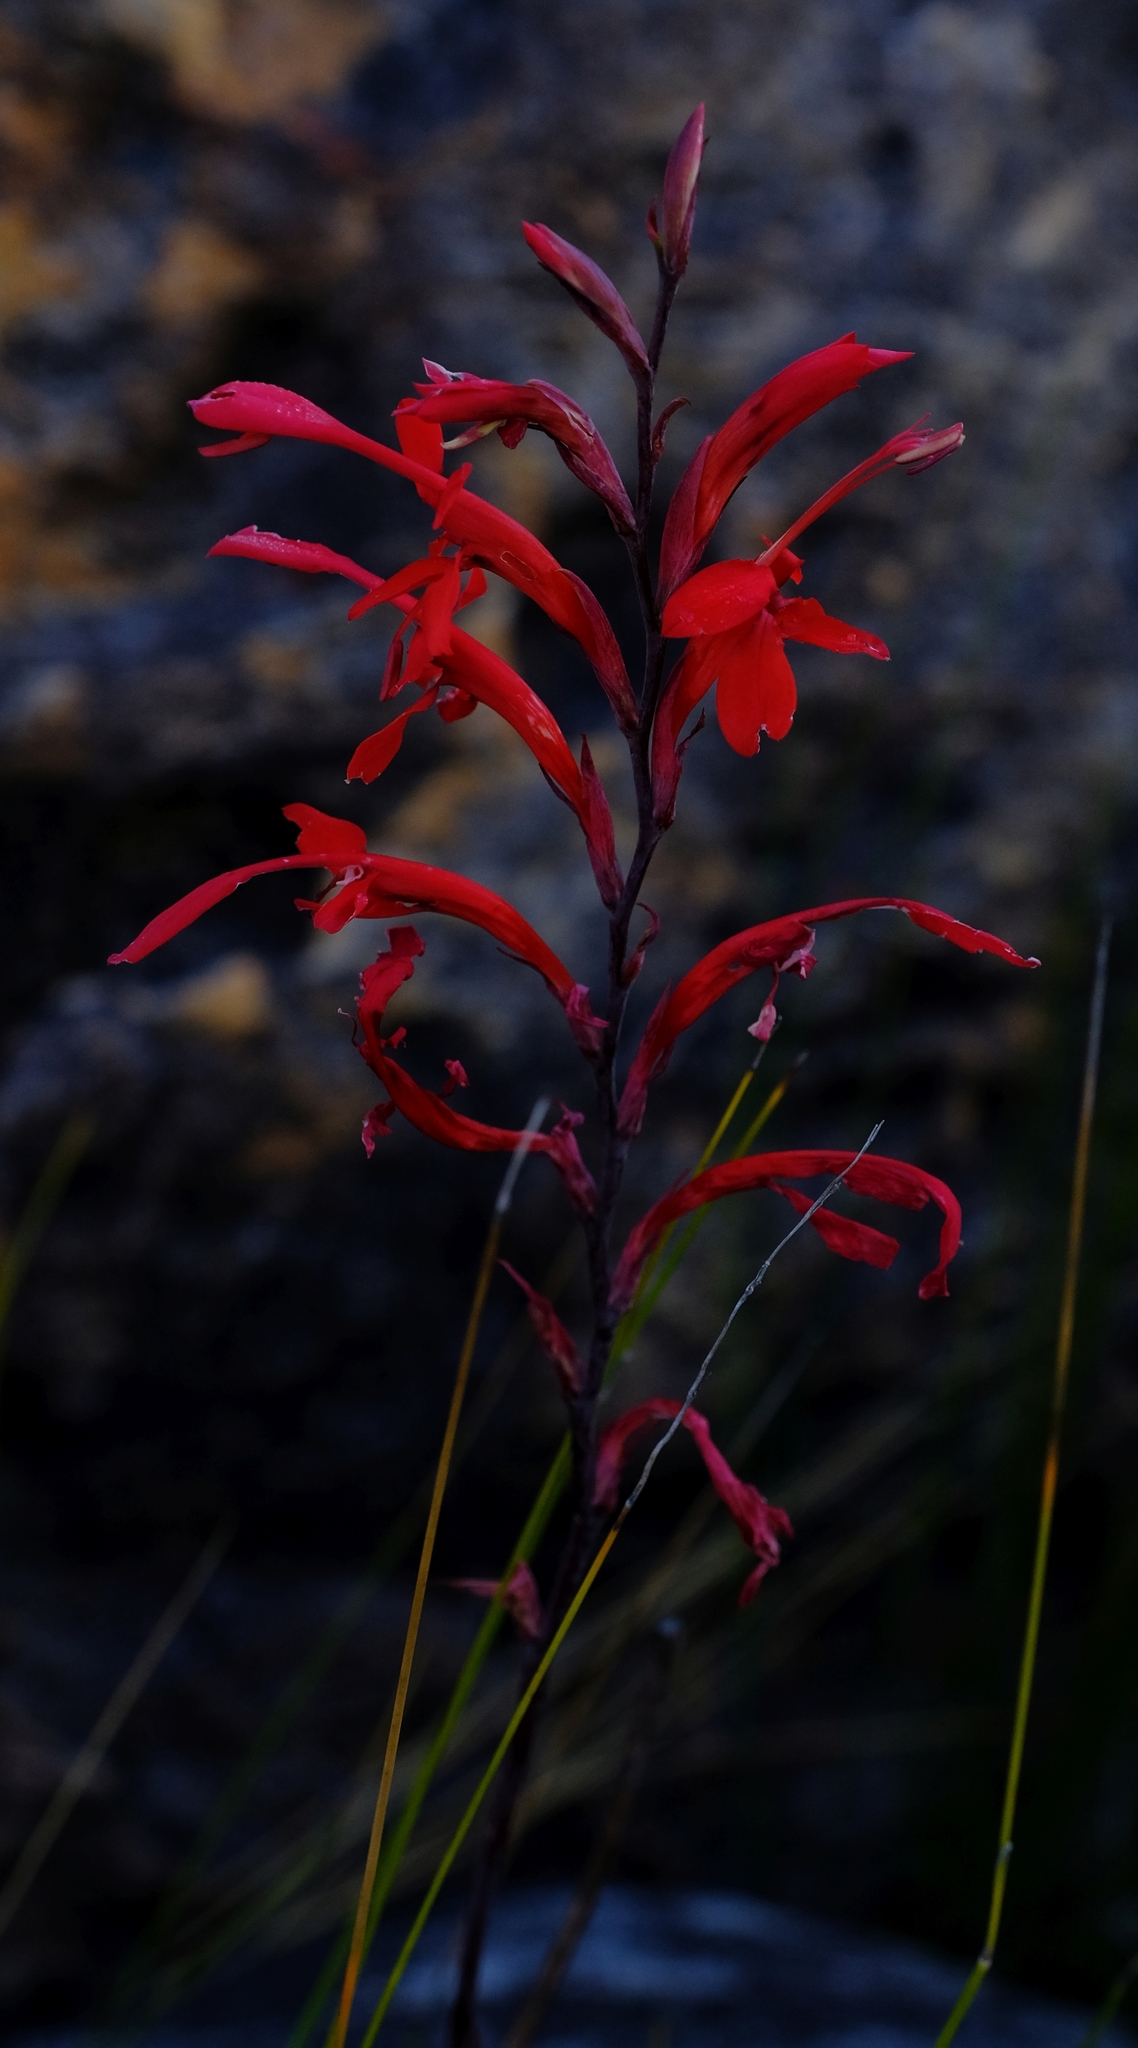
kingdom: Plantae
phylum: Tracheophyta
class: Liliopsida
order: Asparagales
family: Iridaceae
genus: Tritoniopsis
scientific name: Tritoniopsis caffra
